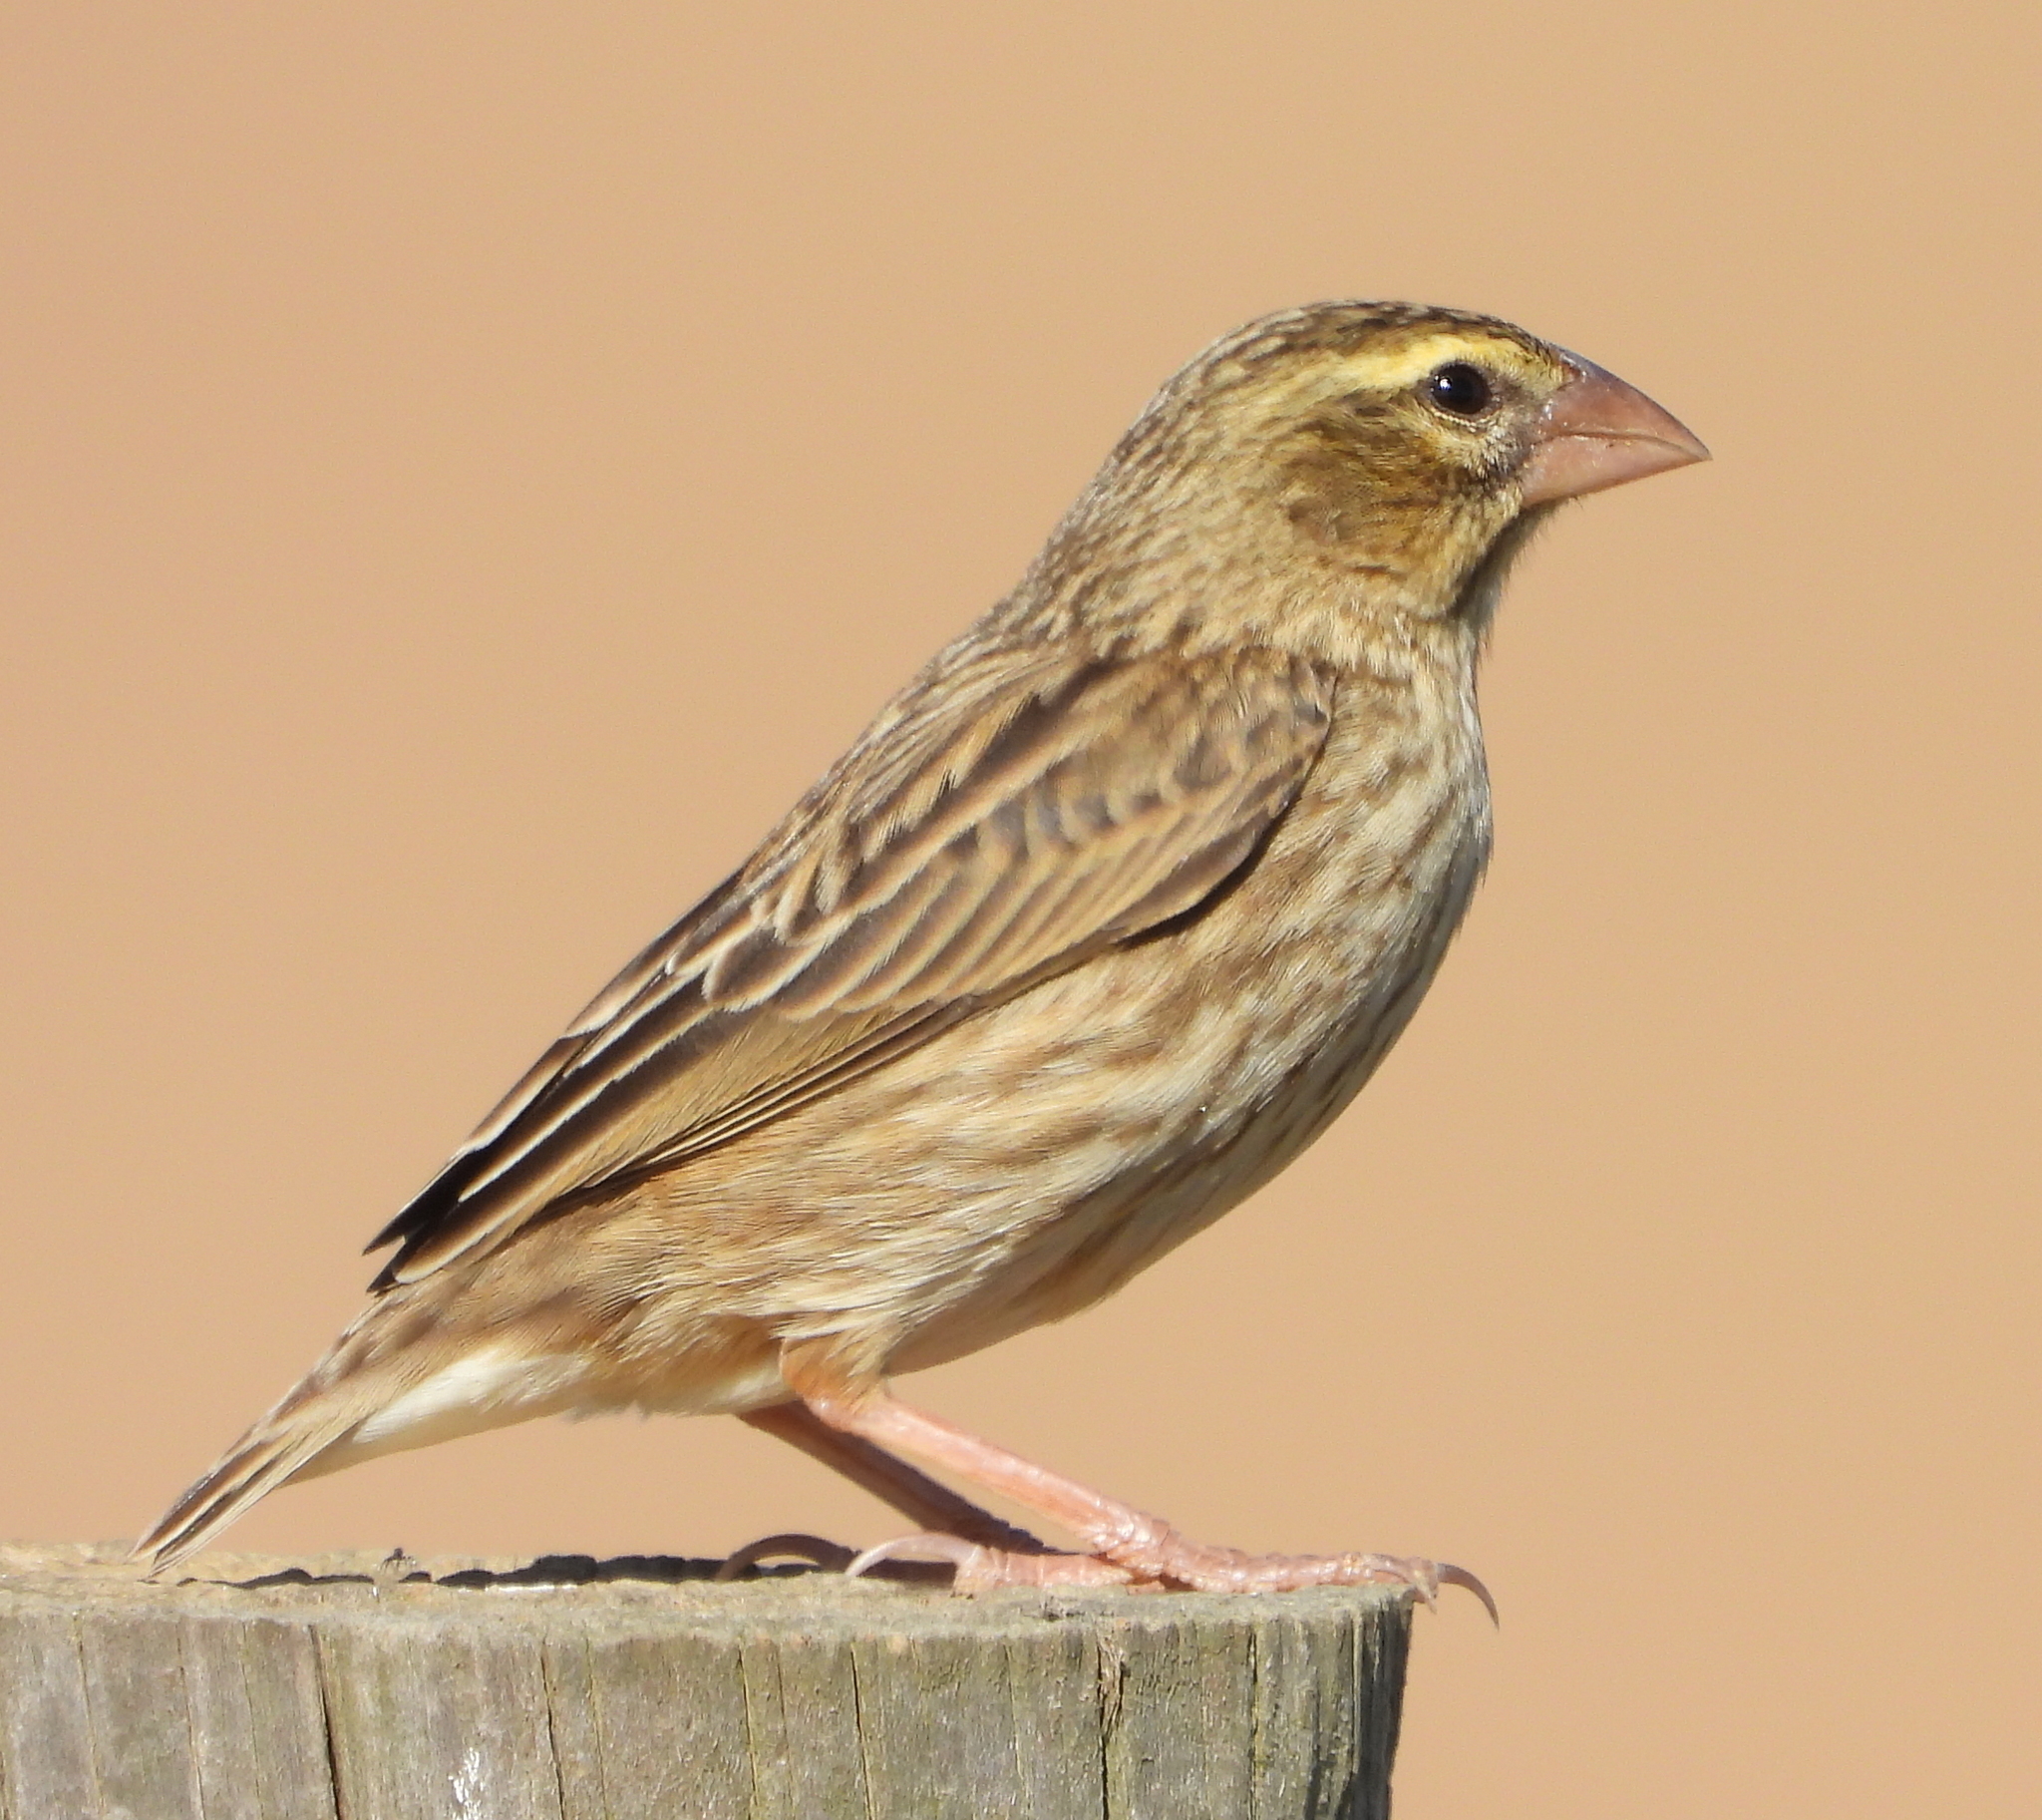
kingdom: Animalia
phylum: Chordata
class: Aves
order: Passeriformes
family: Ploceidae
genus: Euplectes
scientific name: Euplectes orix
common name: Southern red bishop
